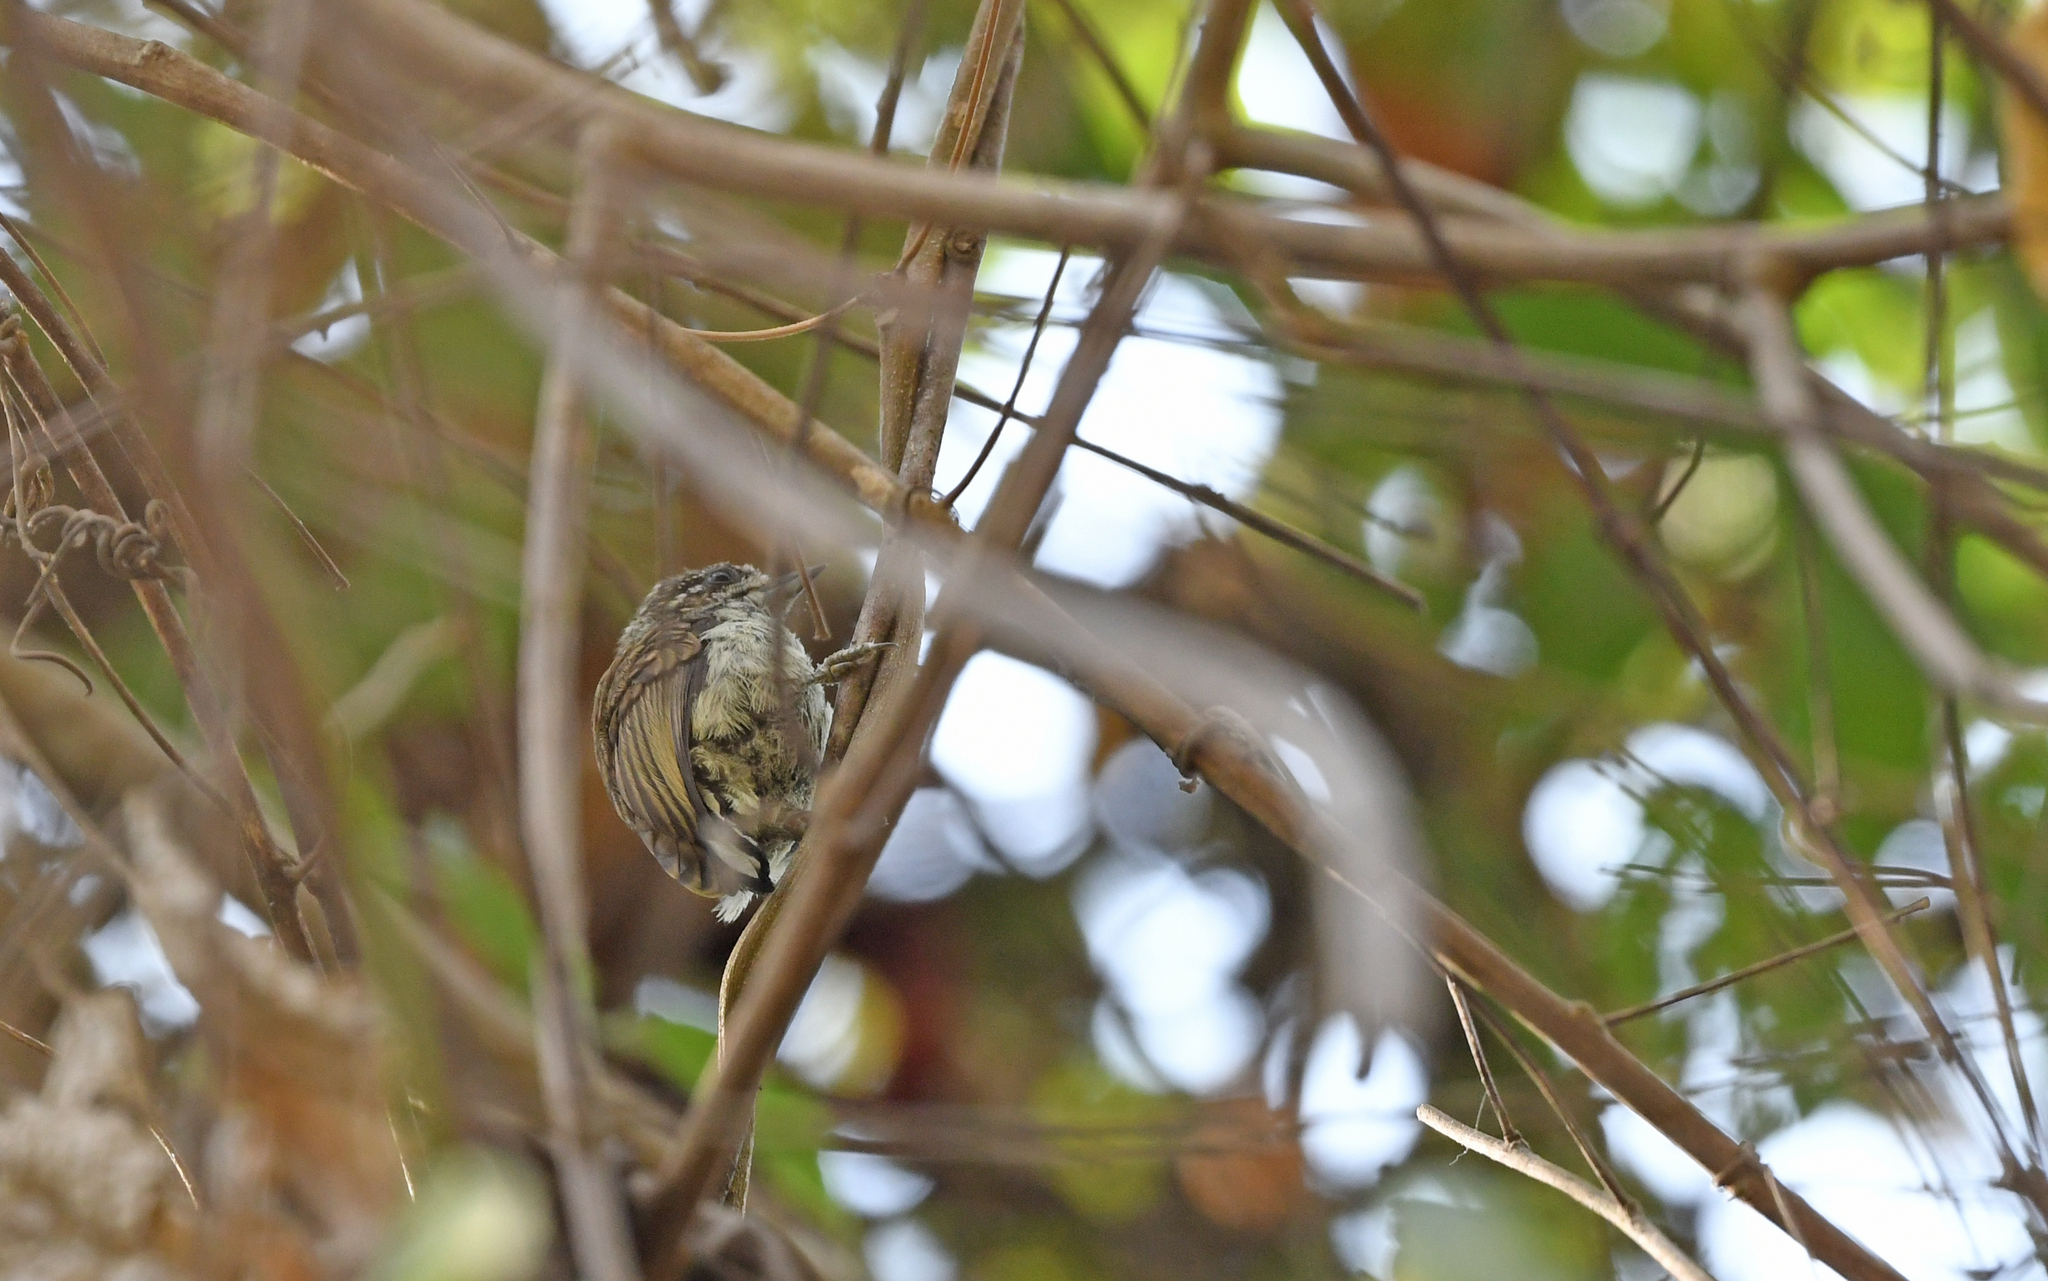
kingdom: Animalia
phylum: Chordata
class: Aves
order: Piciformes
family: Picidae
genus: Picumnus
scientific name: Picumnus squamulatus
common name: Scaled piculet
